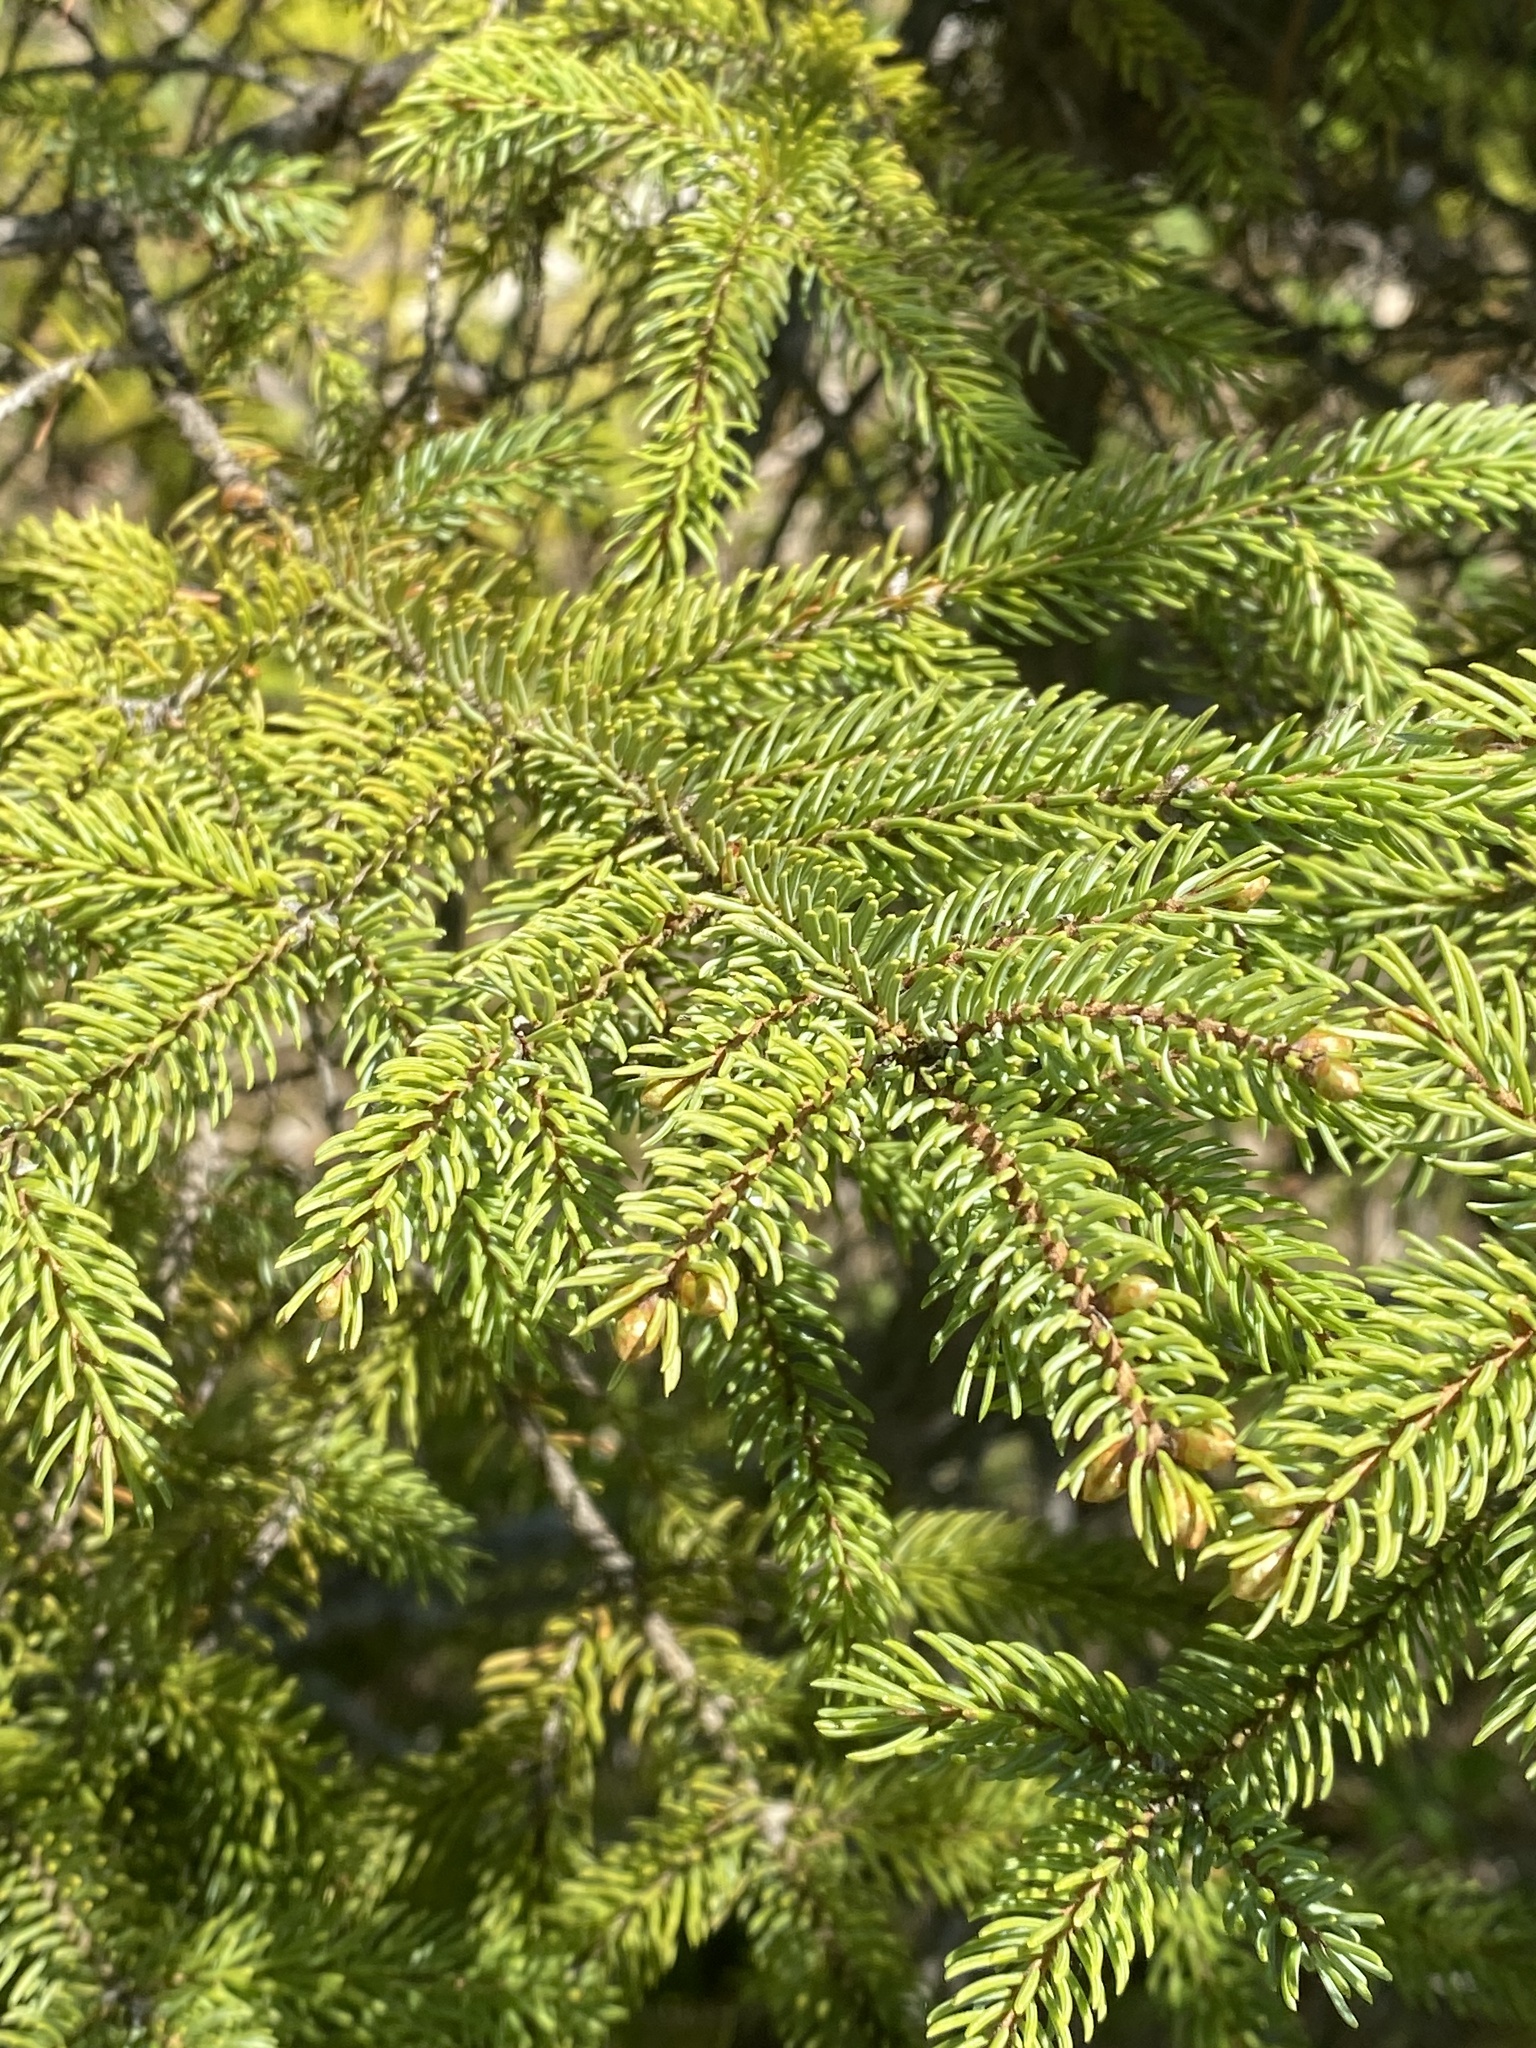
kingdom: Plantae
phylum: Tracheophyta
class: Pinopsida
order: Pinales
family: Pinaceae
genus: Picea
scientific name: Picea mariana
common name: Black spruce
